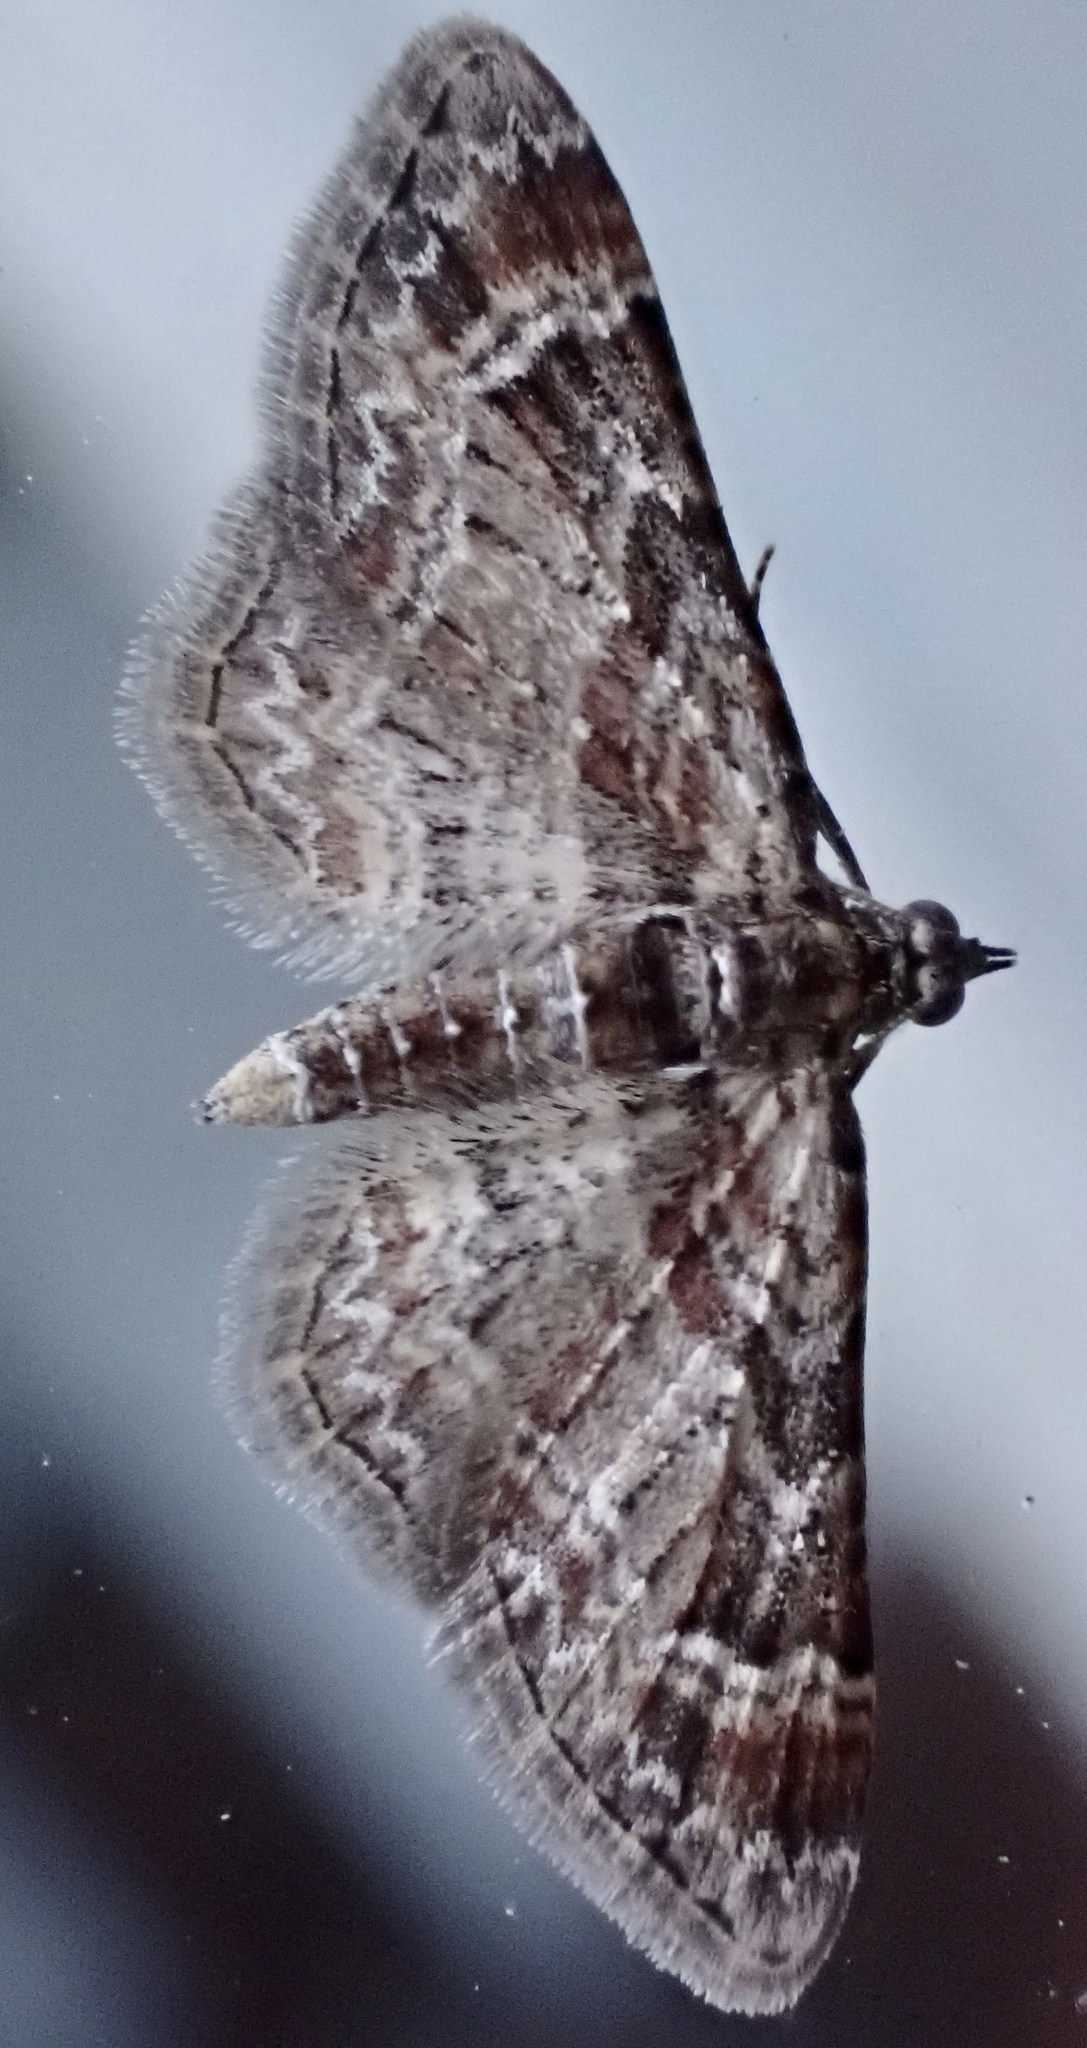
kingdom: Animalia
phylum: Arthropoda
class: Insecta
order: Lepidoptera
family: Geometridae
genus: Gymnoscelis
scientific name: Gymnoscelis rufifasciata
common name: Double-striped pug
